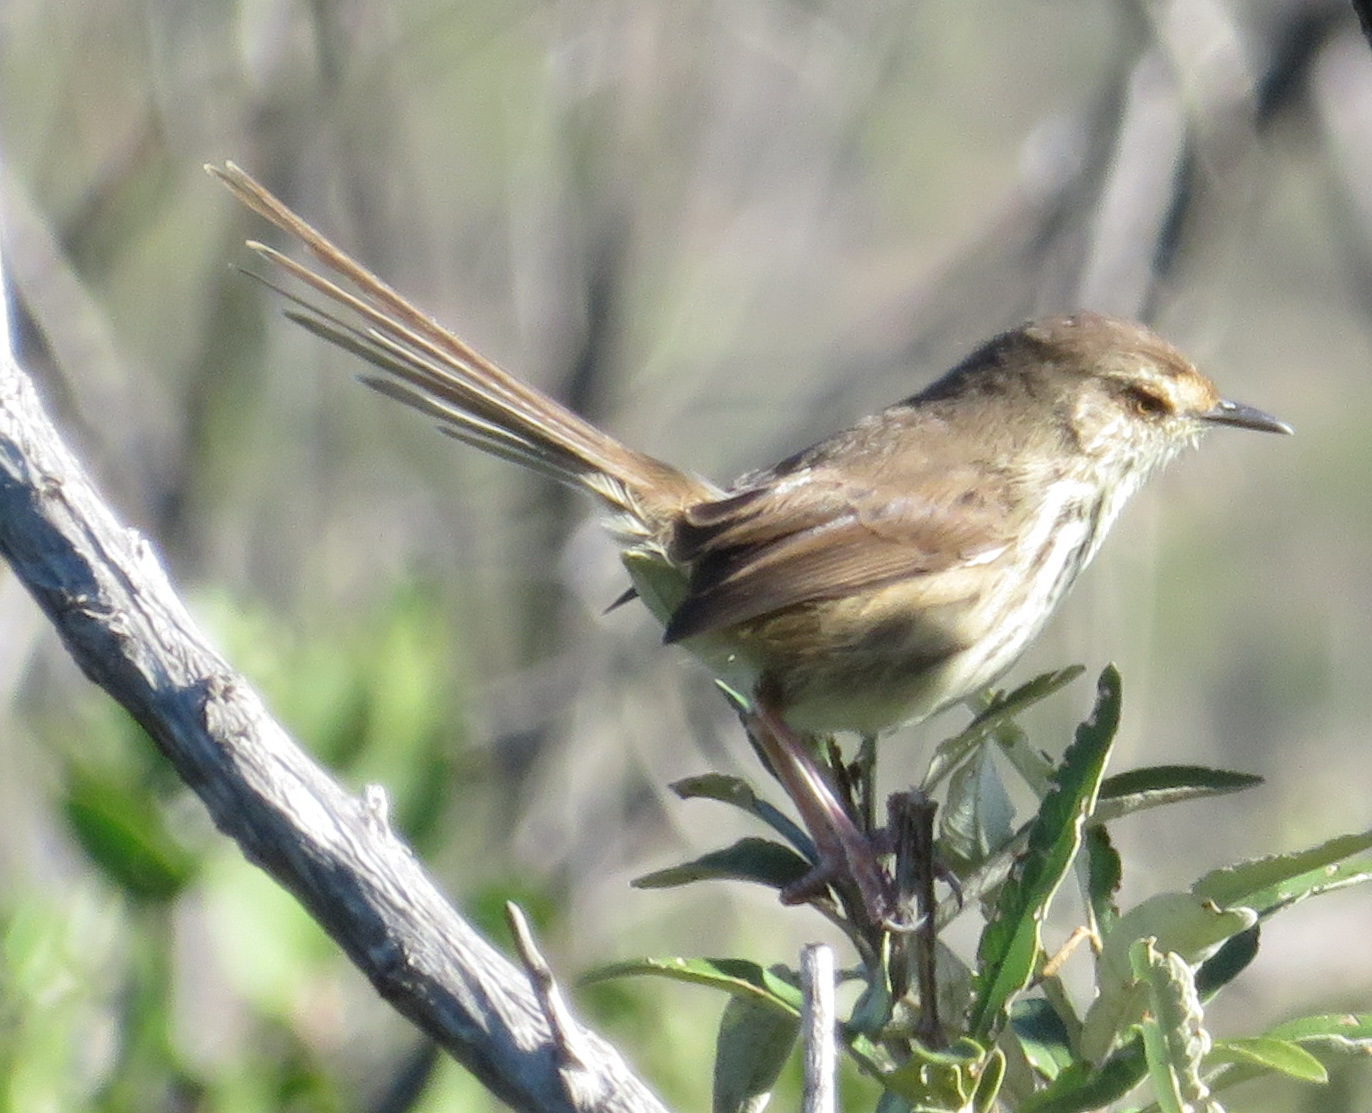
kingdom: Animalia
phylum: Chordata
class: Aves
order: Passeriformes
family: Cisticolidae
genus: Prinia
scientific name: Prinia maculosa
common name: Karoo prinia
